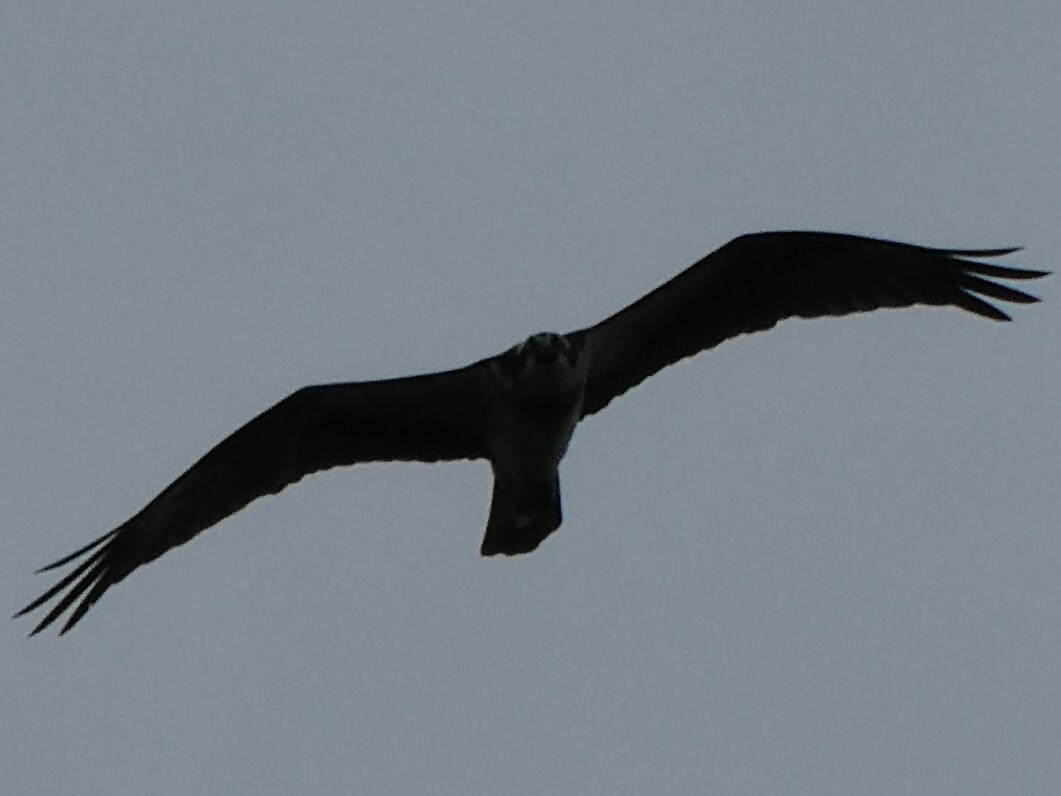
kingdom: Animalia
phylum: Chordata
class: Aves
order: Accipitriformes
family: Pandionidae
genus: Pandion
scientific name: Pandion haliaetus
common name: Osprey
